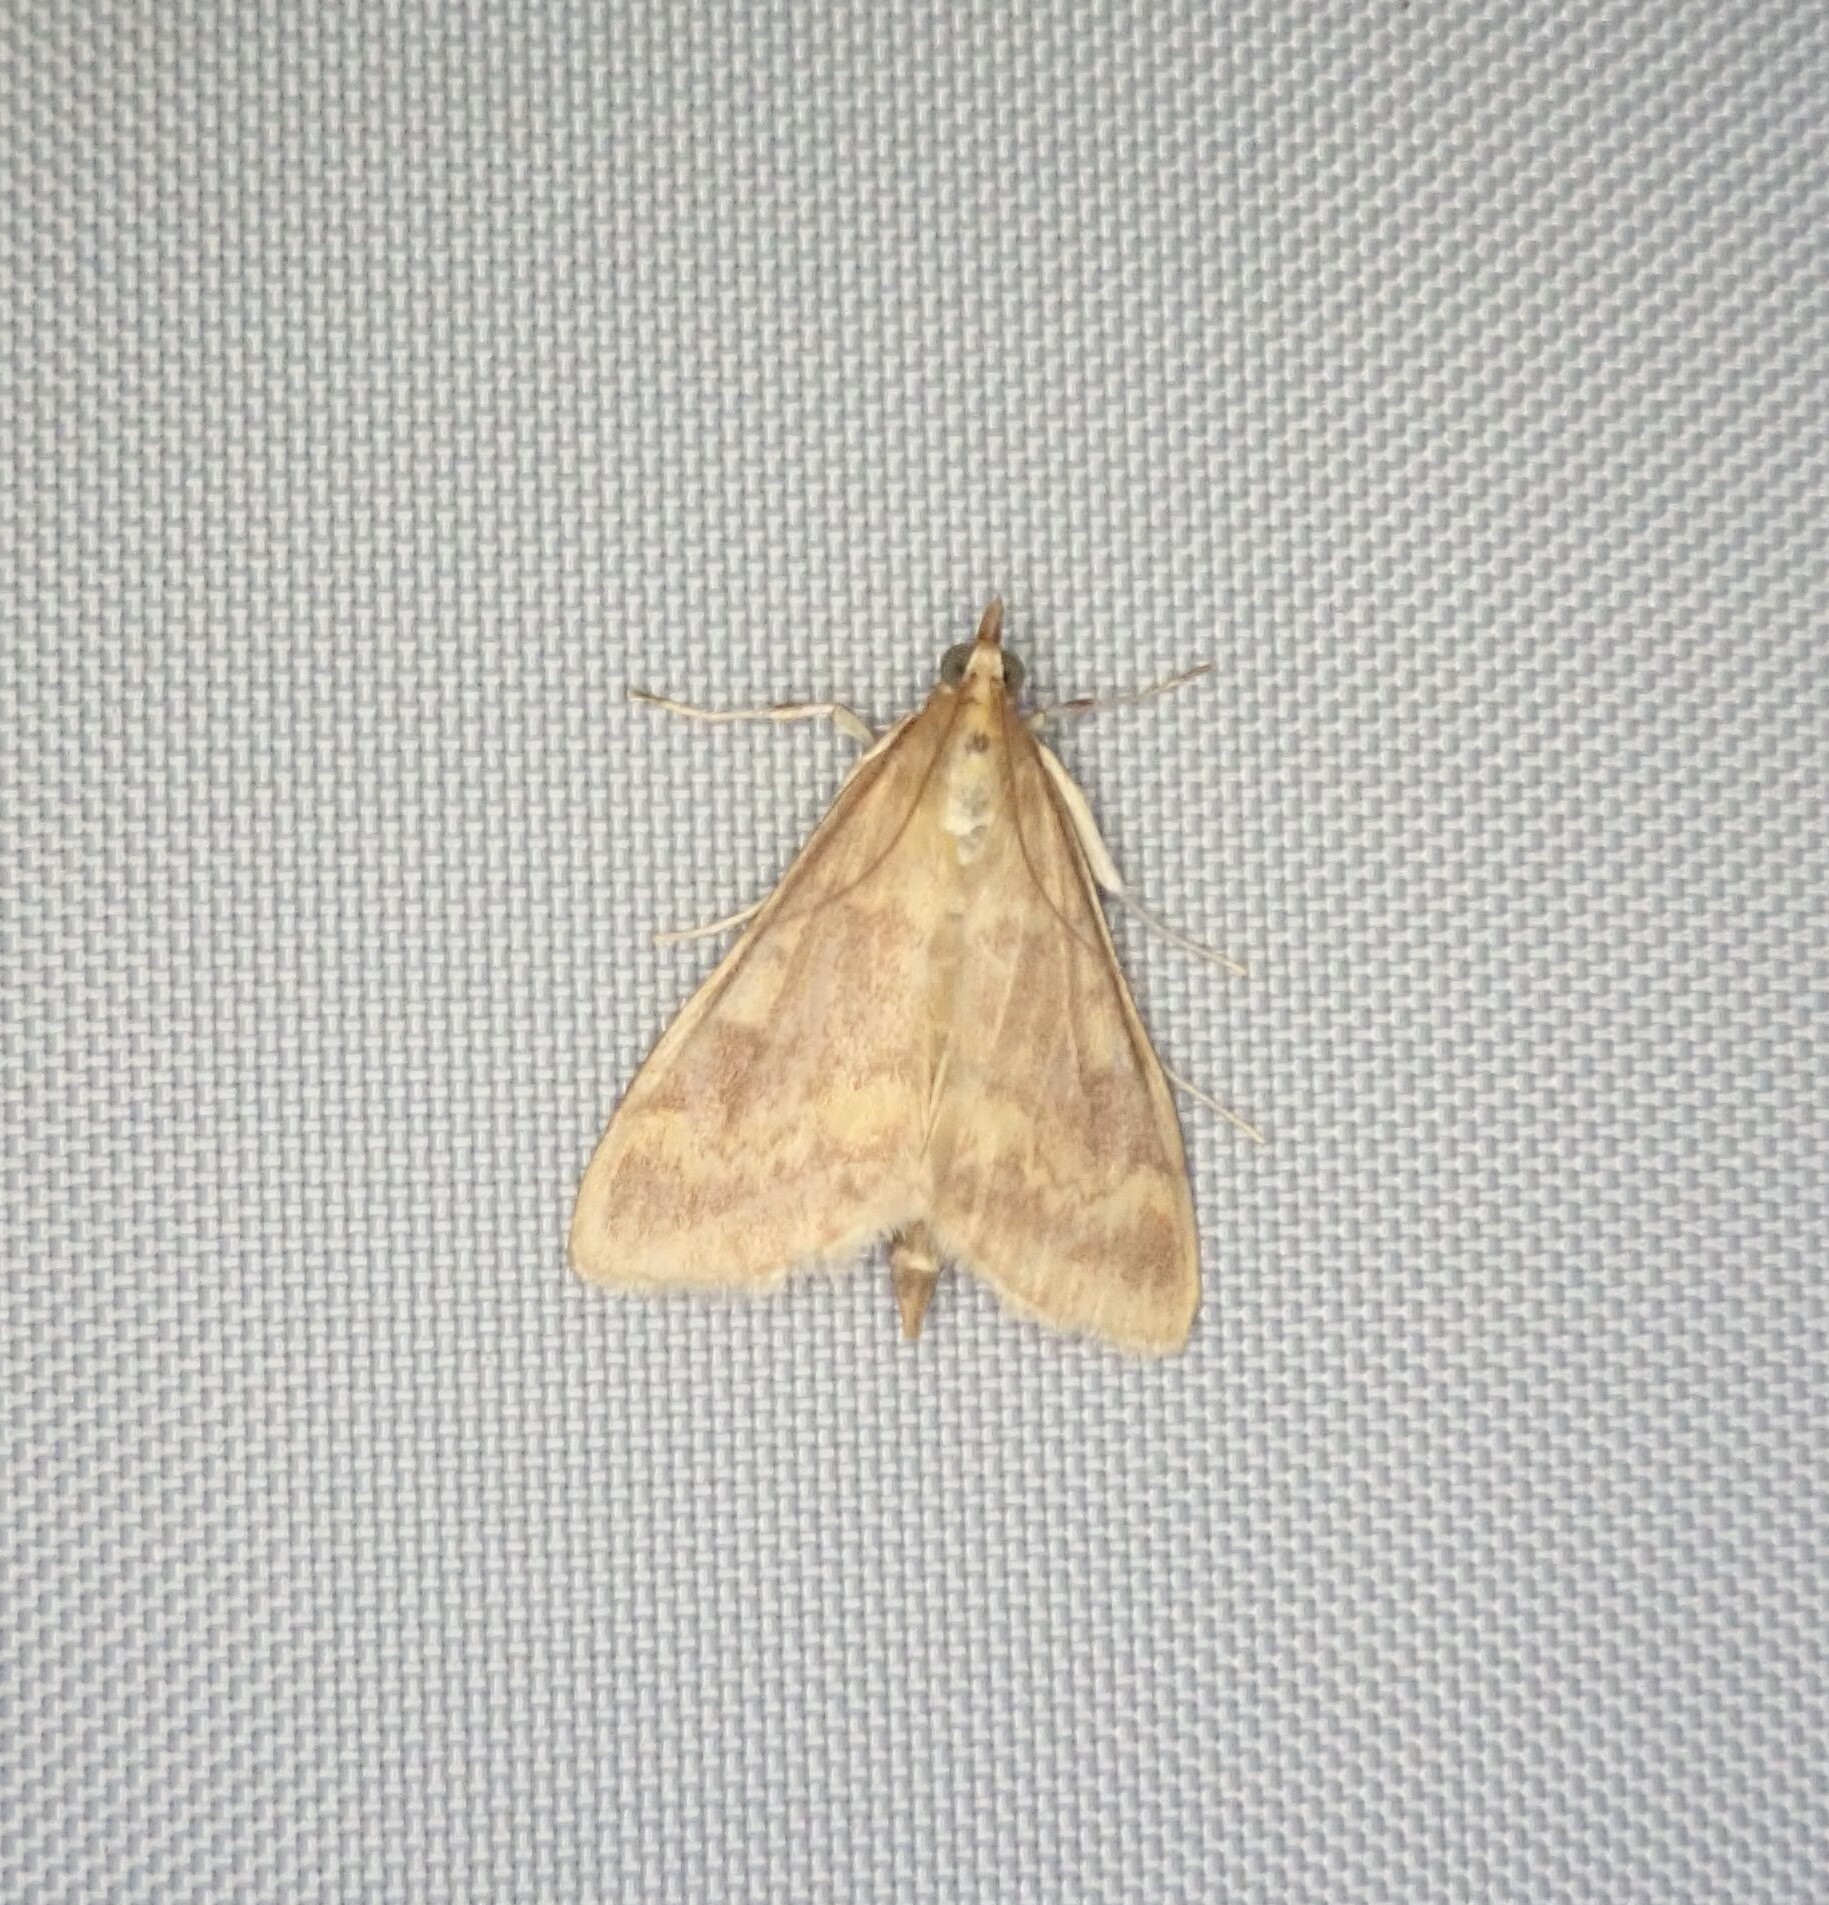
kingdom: Animalia
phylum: Arthropoda
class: Insecta
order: Lepidoptera
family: Crambidae
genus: Ostrinia
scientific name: Ostrinia nubilalis
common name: European corn borer
